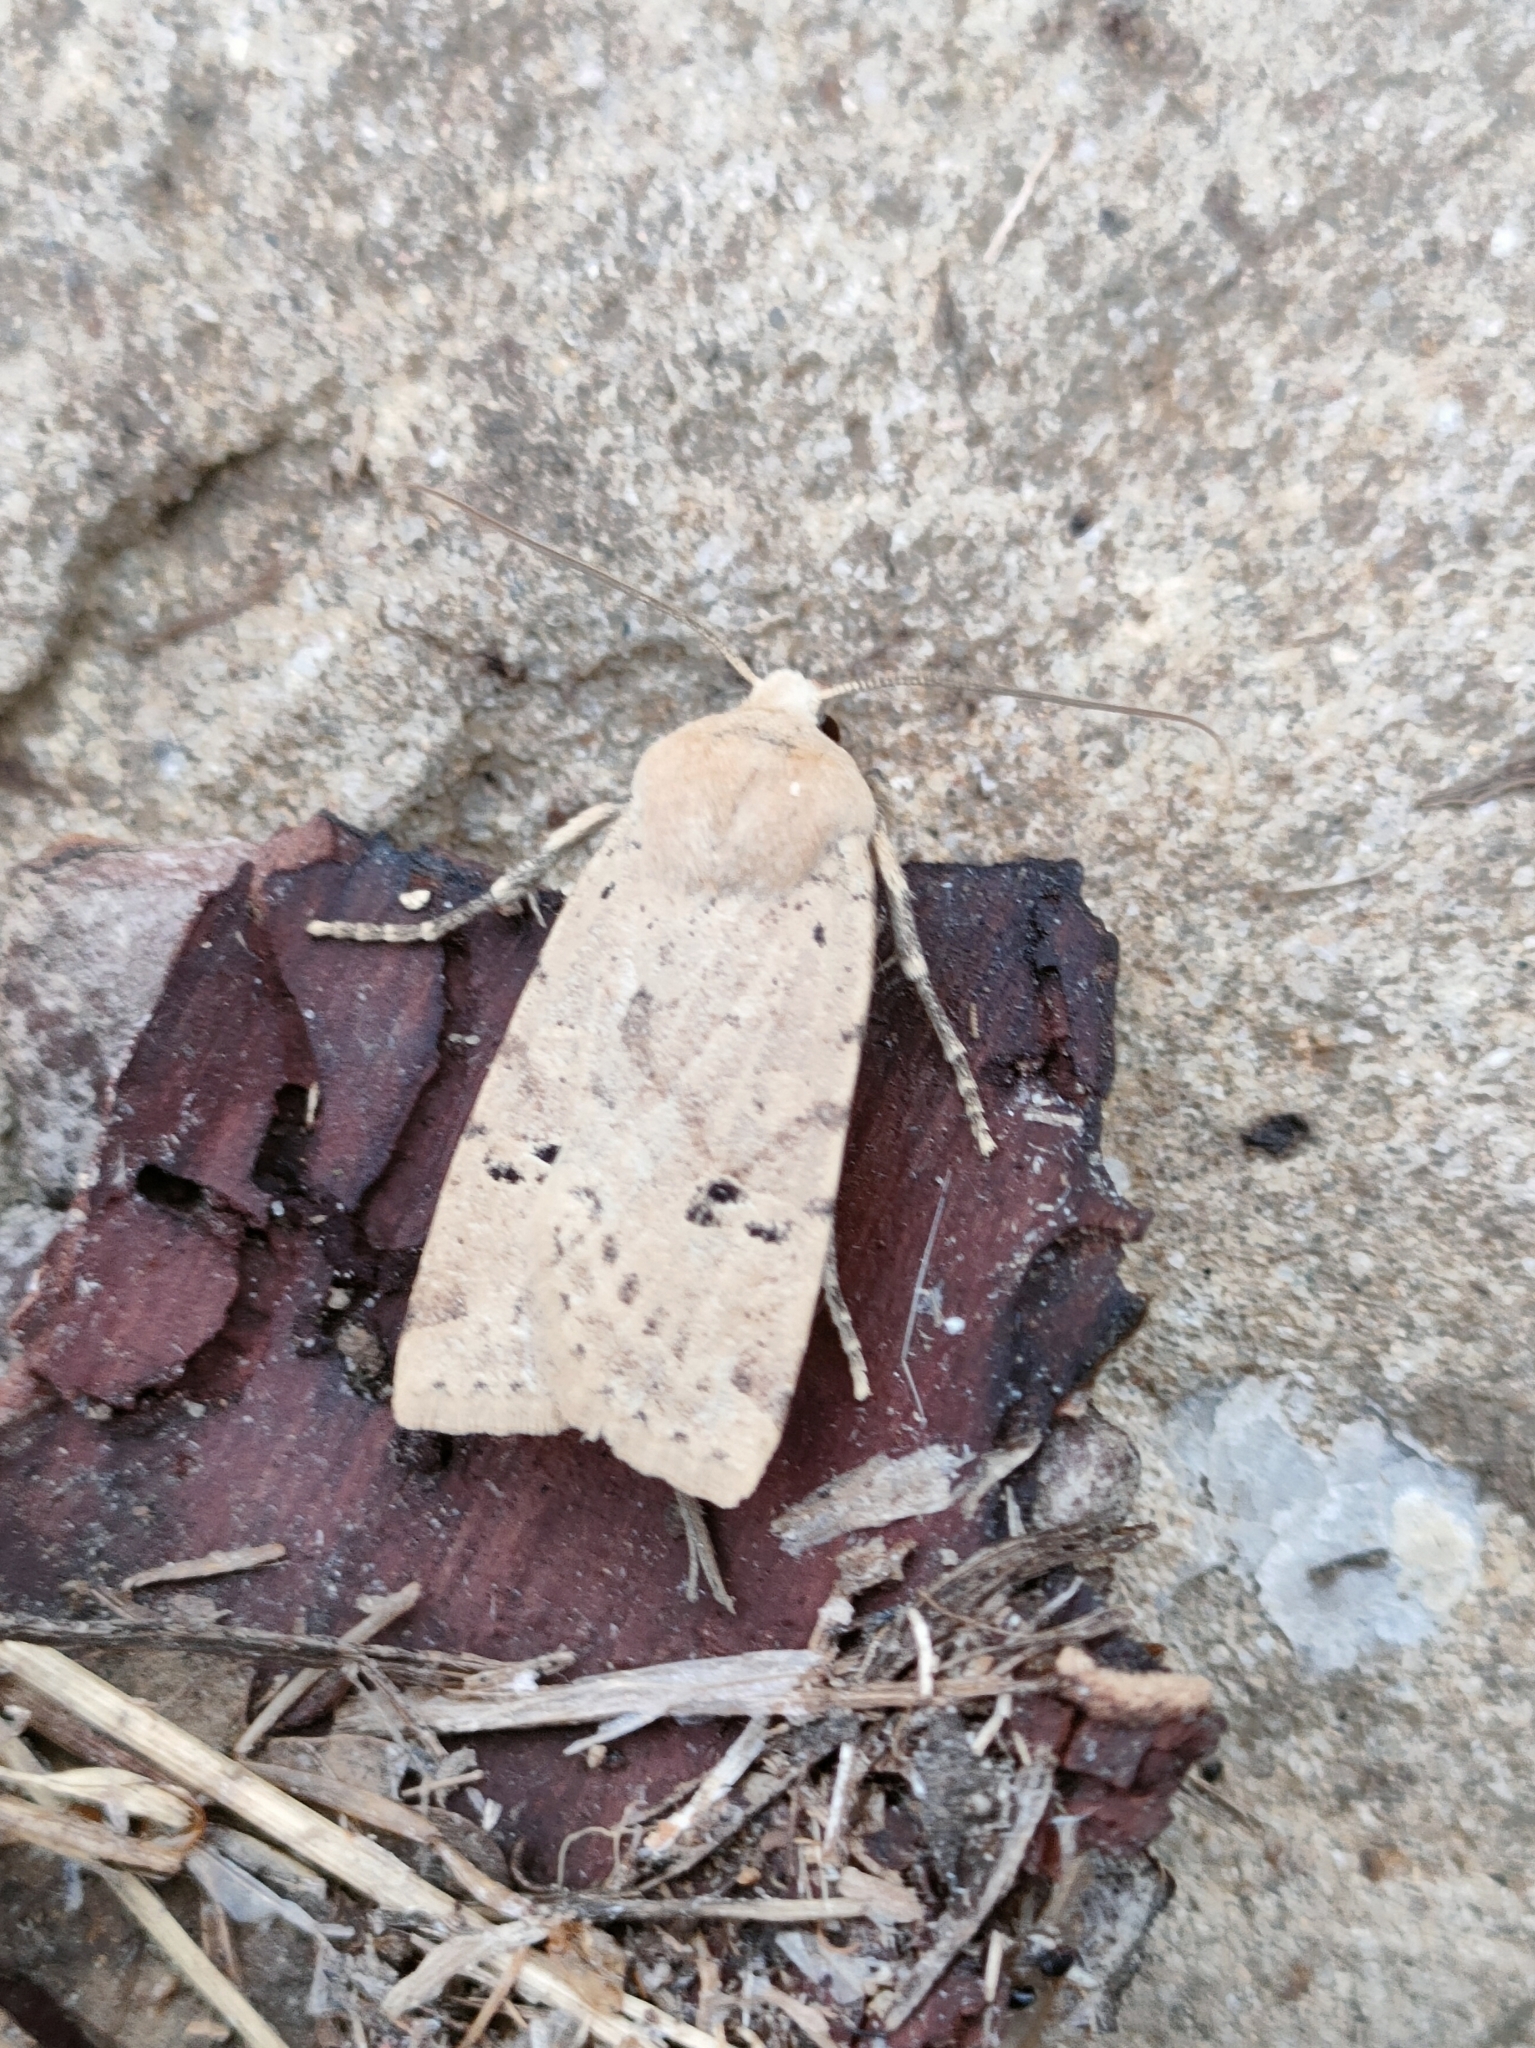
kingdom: Animalia
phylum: Arthropoda
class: Insecta
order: Lepidoptera
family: Noctuidae
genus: Conistra
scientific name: Conistra daubei
